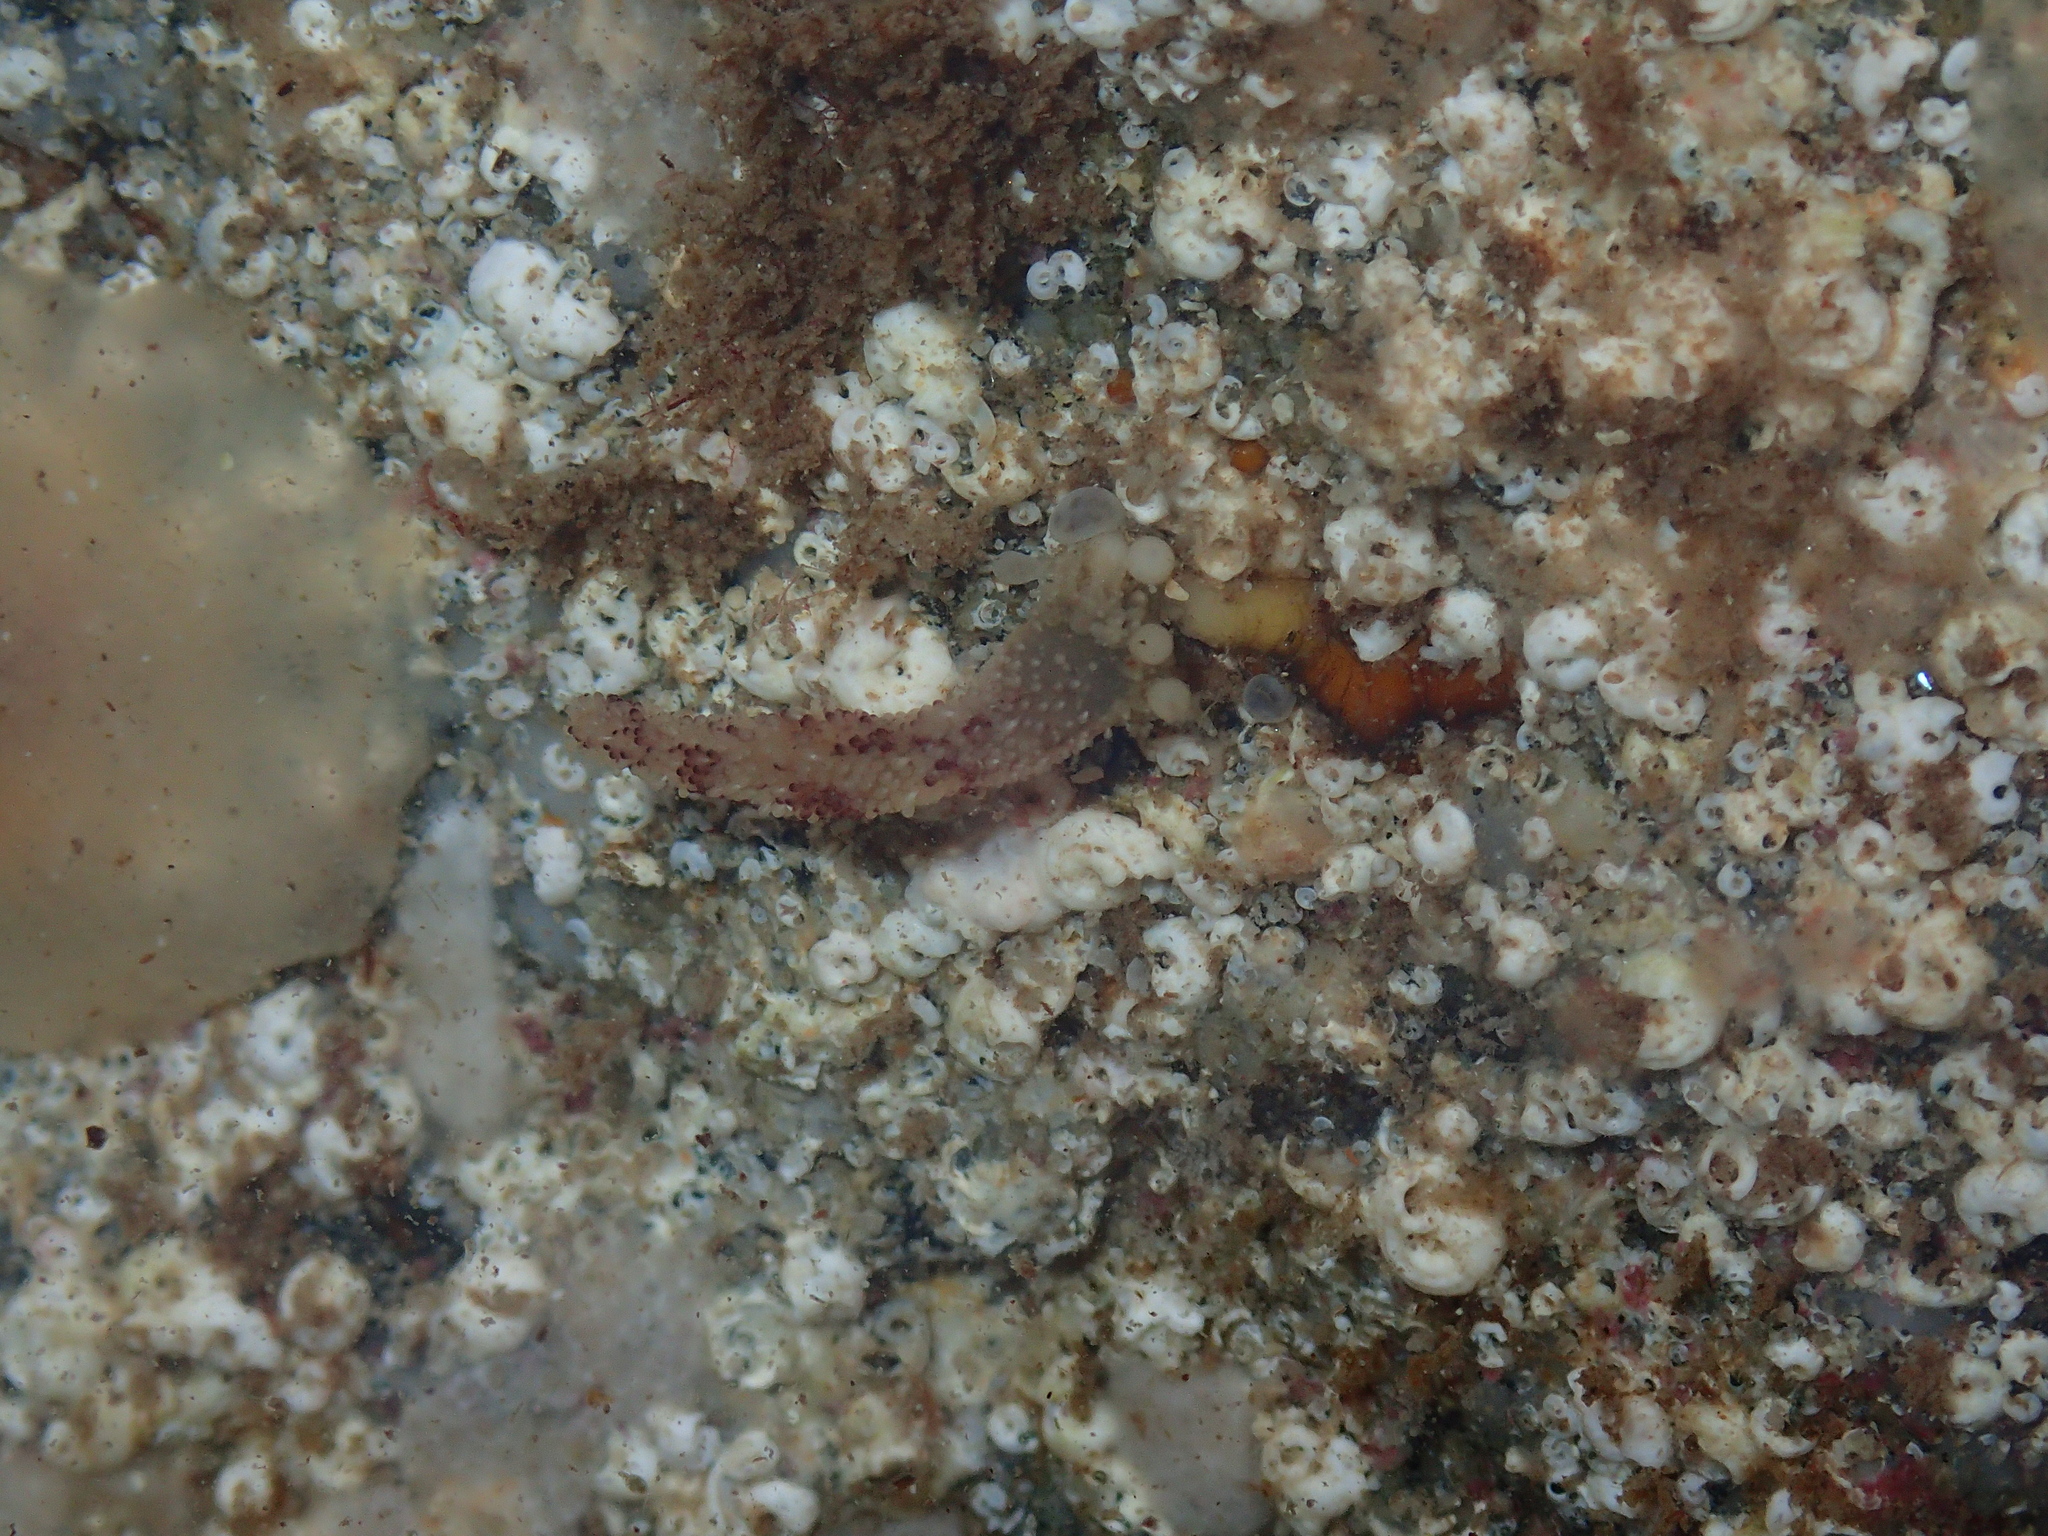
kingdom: Animalia
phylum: Cnidaria
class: Hydrozoa
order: Anthoathecata
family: Candelabridae
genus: Candelabrum
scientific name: Candelabrum cocksii
